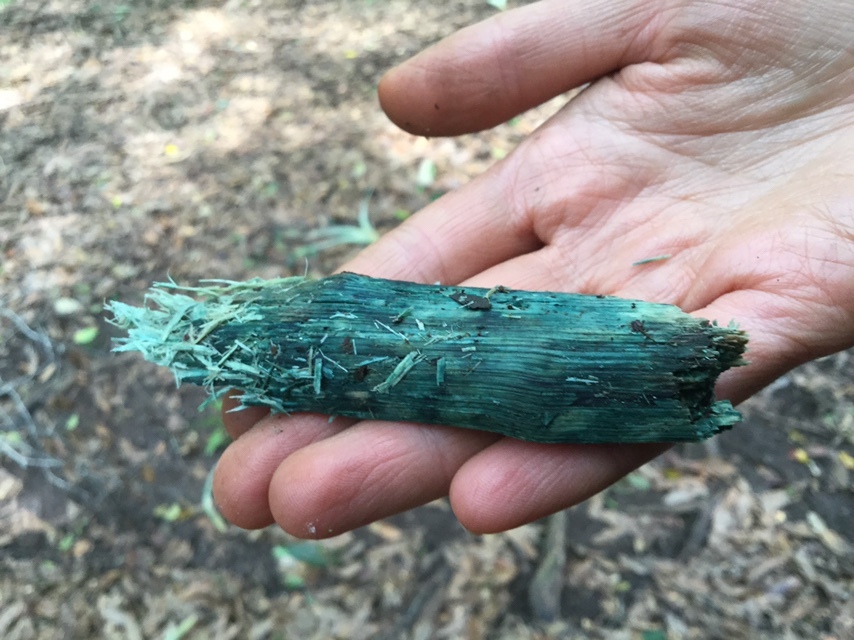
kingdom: Fungi
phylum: Ascomycota
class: Leotiomycetes
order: Helotiales
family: Chlorociboriaceae
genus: Chlorociboria
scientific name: Chlorociboria
